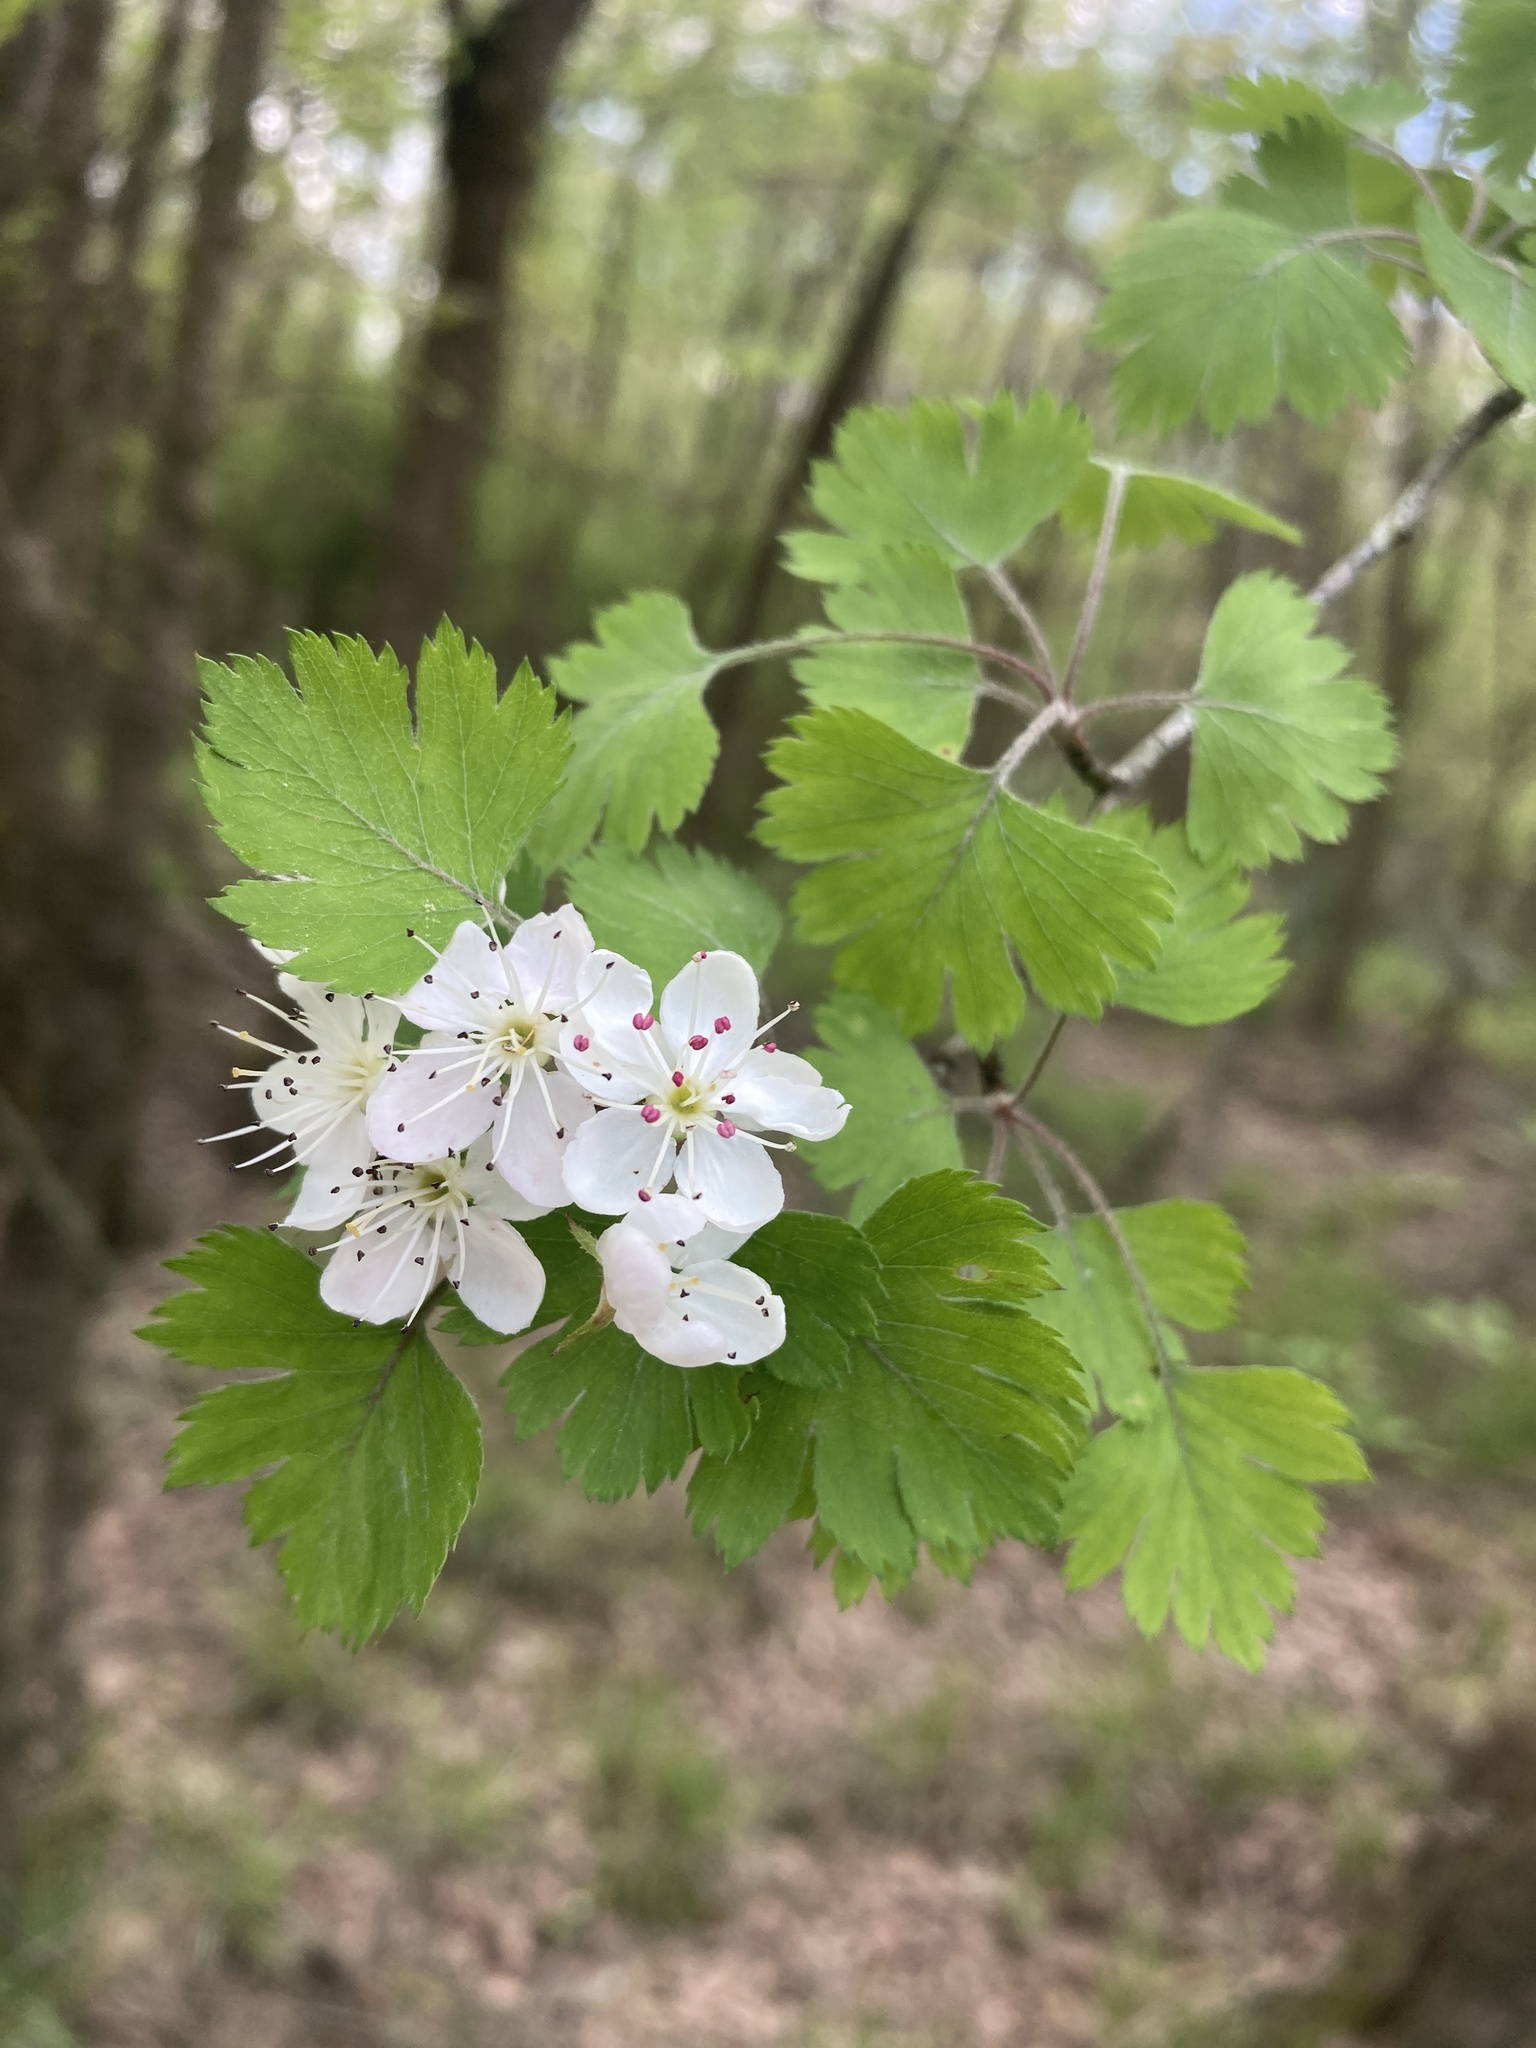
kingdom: Plantae
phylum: Tracheophyta
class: Magnoliopsida
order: Rosales
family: Rosaceae
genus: Crataegus
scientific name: Crataegus marshallii
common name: Parsley-hawthorn
